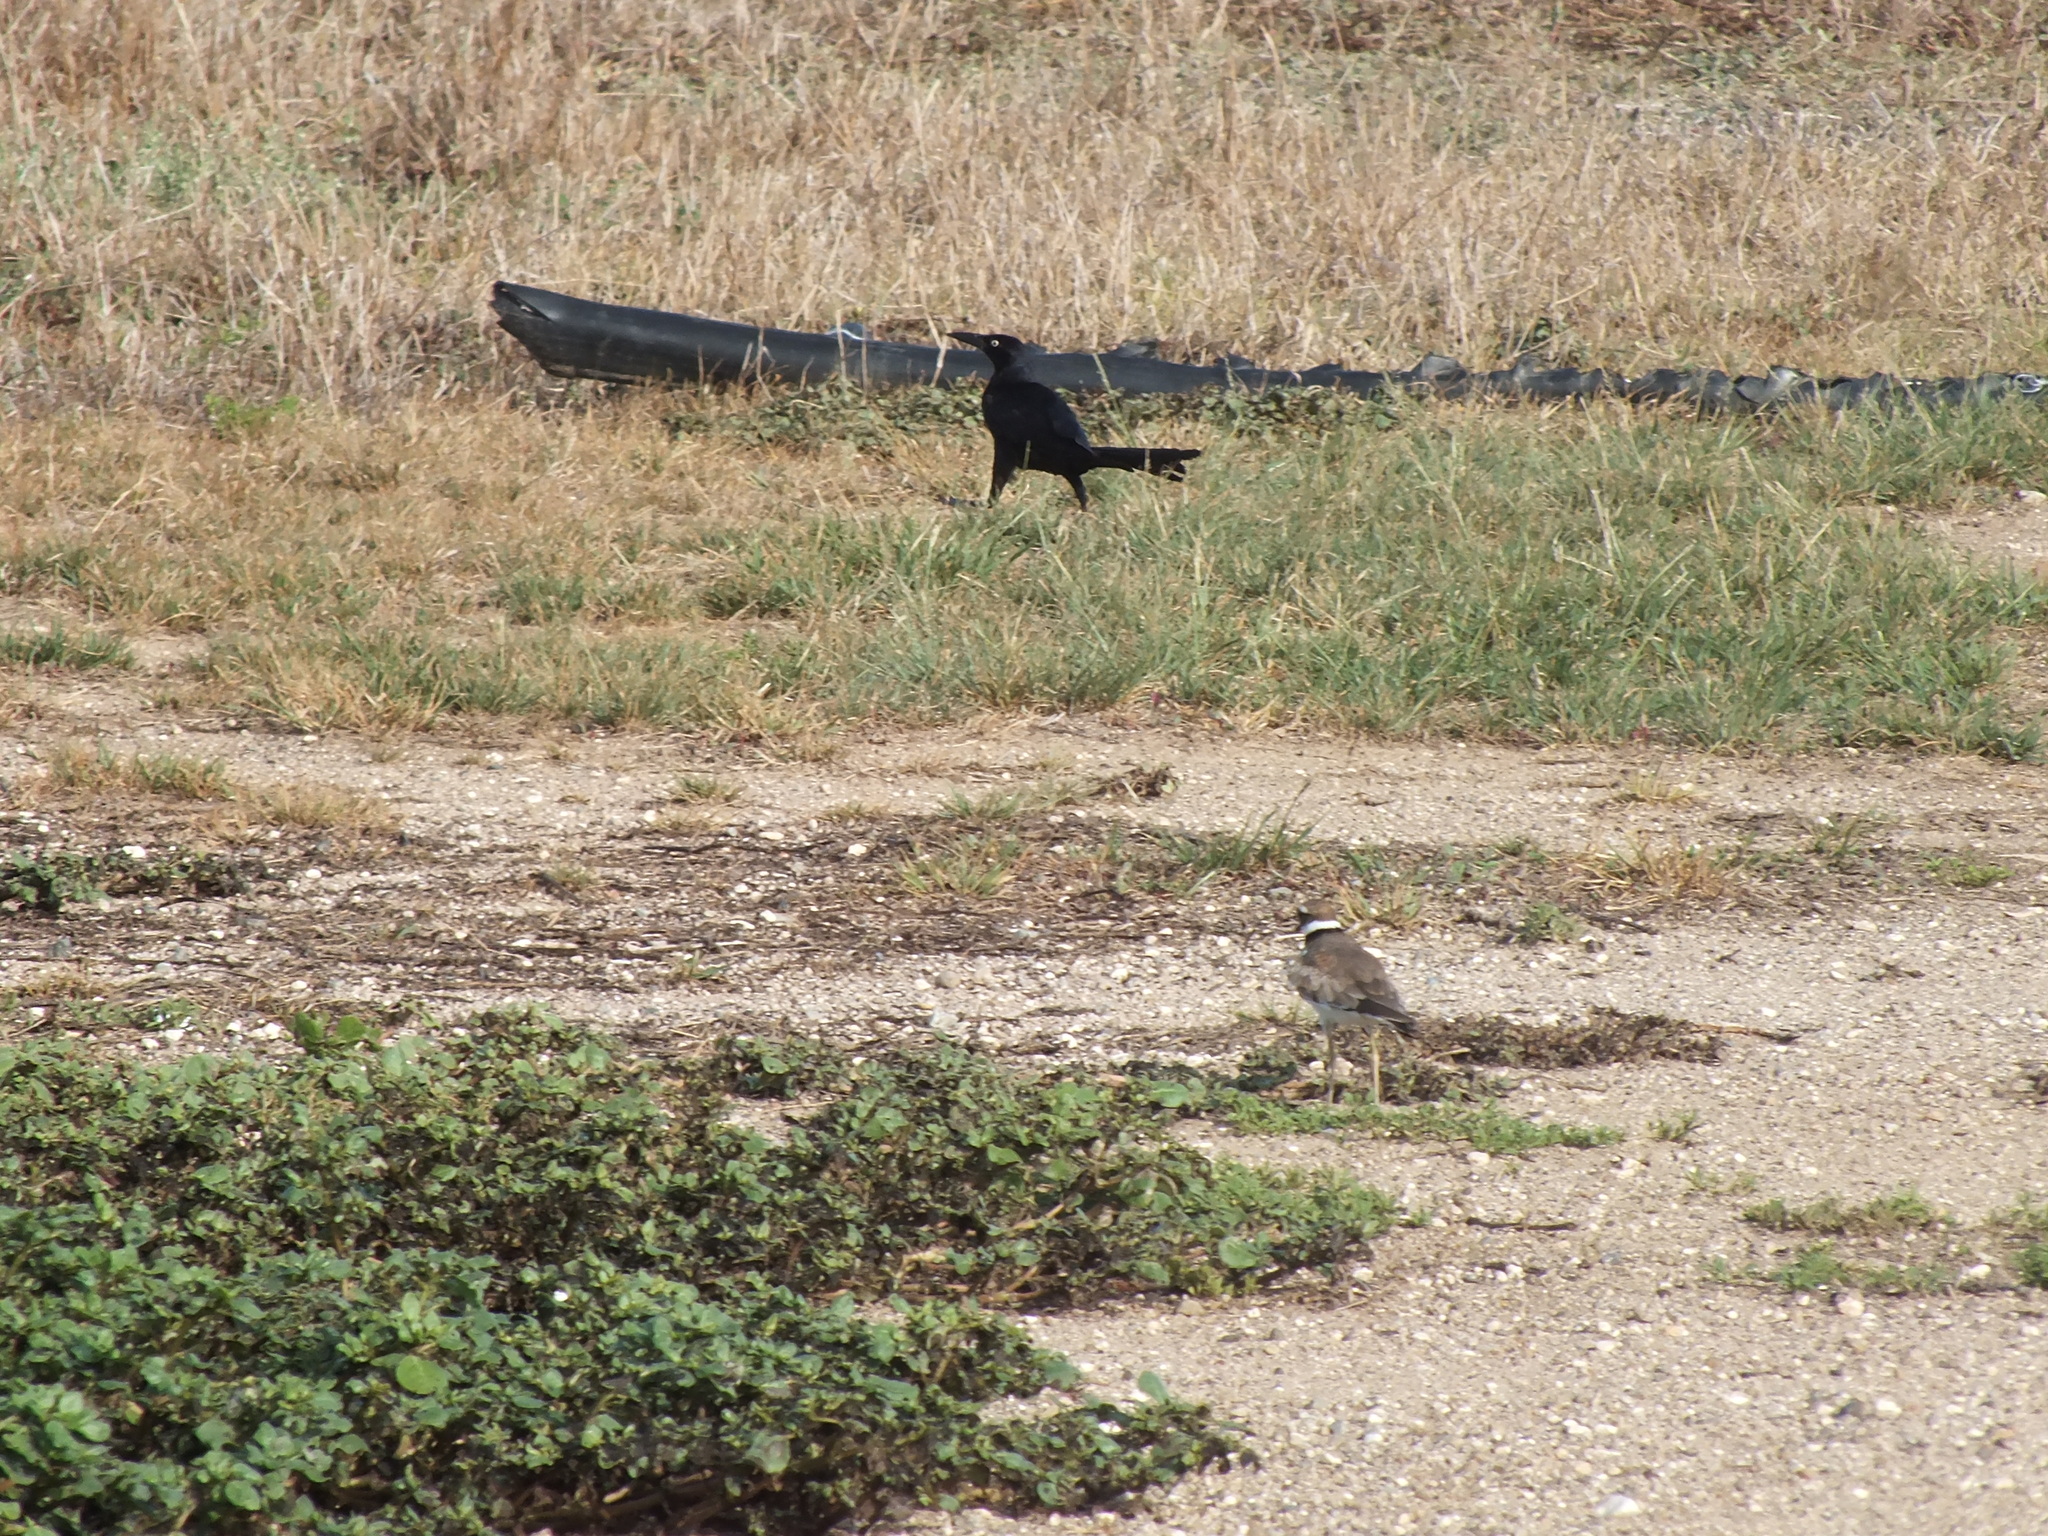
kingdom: Animalia
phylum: Chordata
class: Aves
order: Passeriformes
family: Icteridae
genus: Quiscalus
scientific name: Quiscalus mexicanus
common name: Great-tailed grackle
